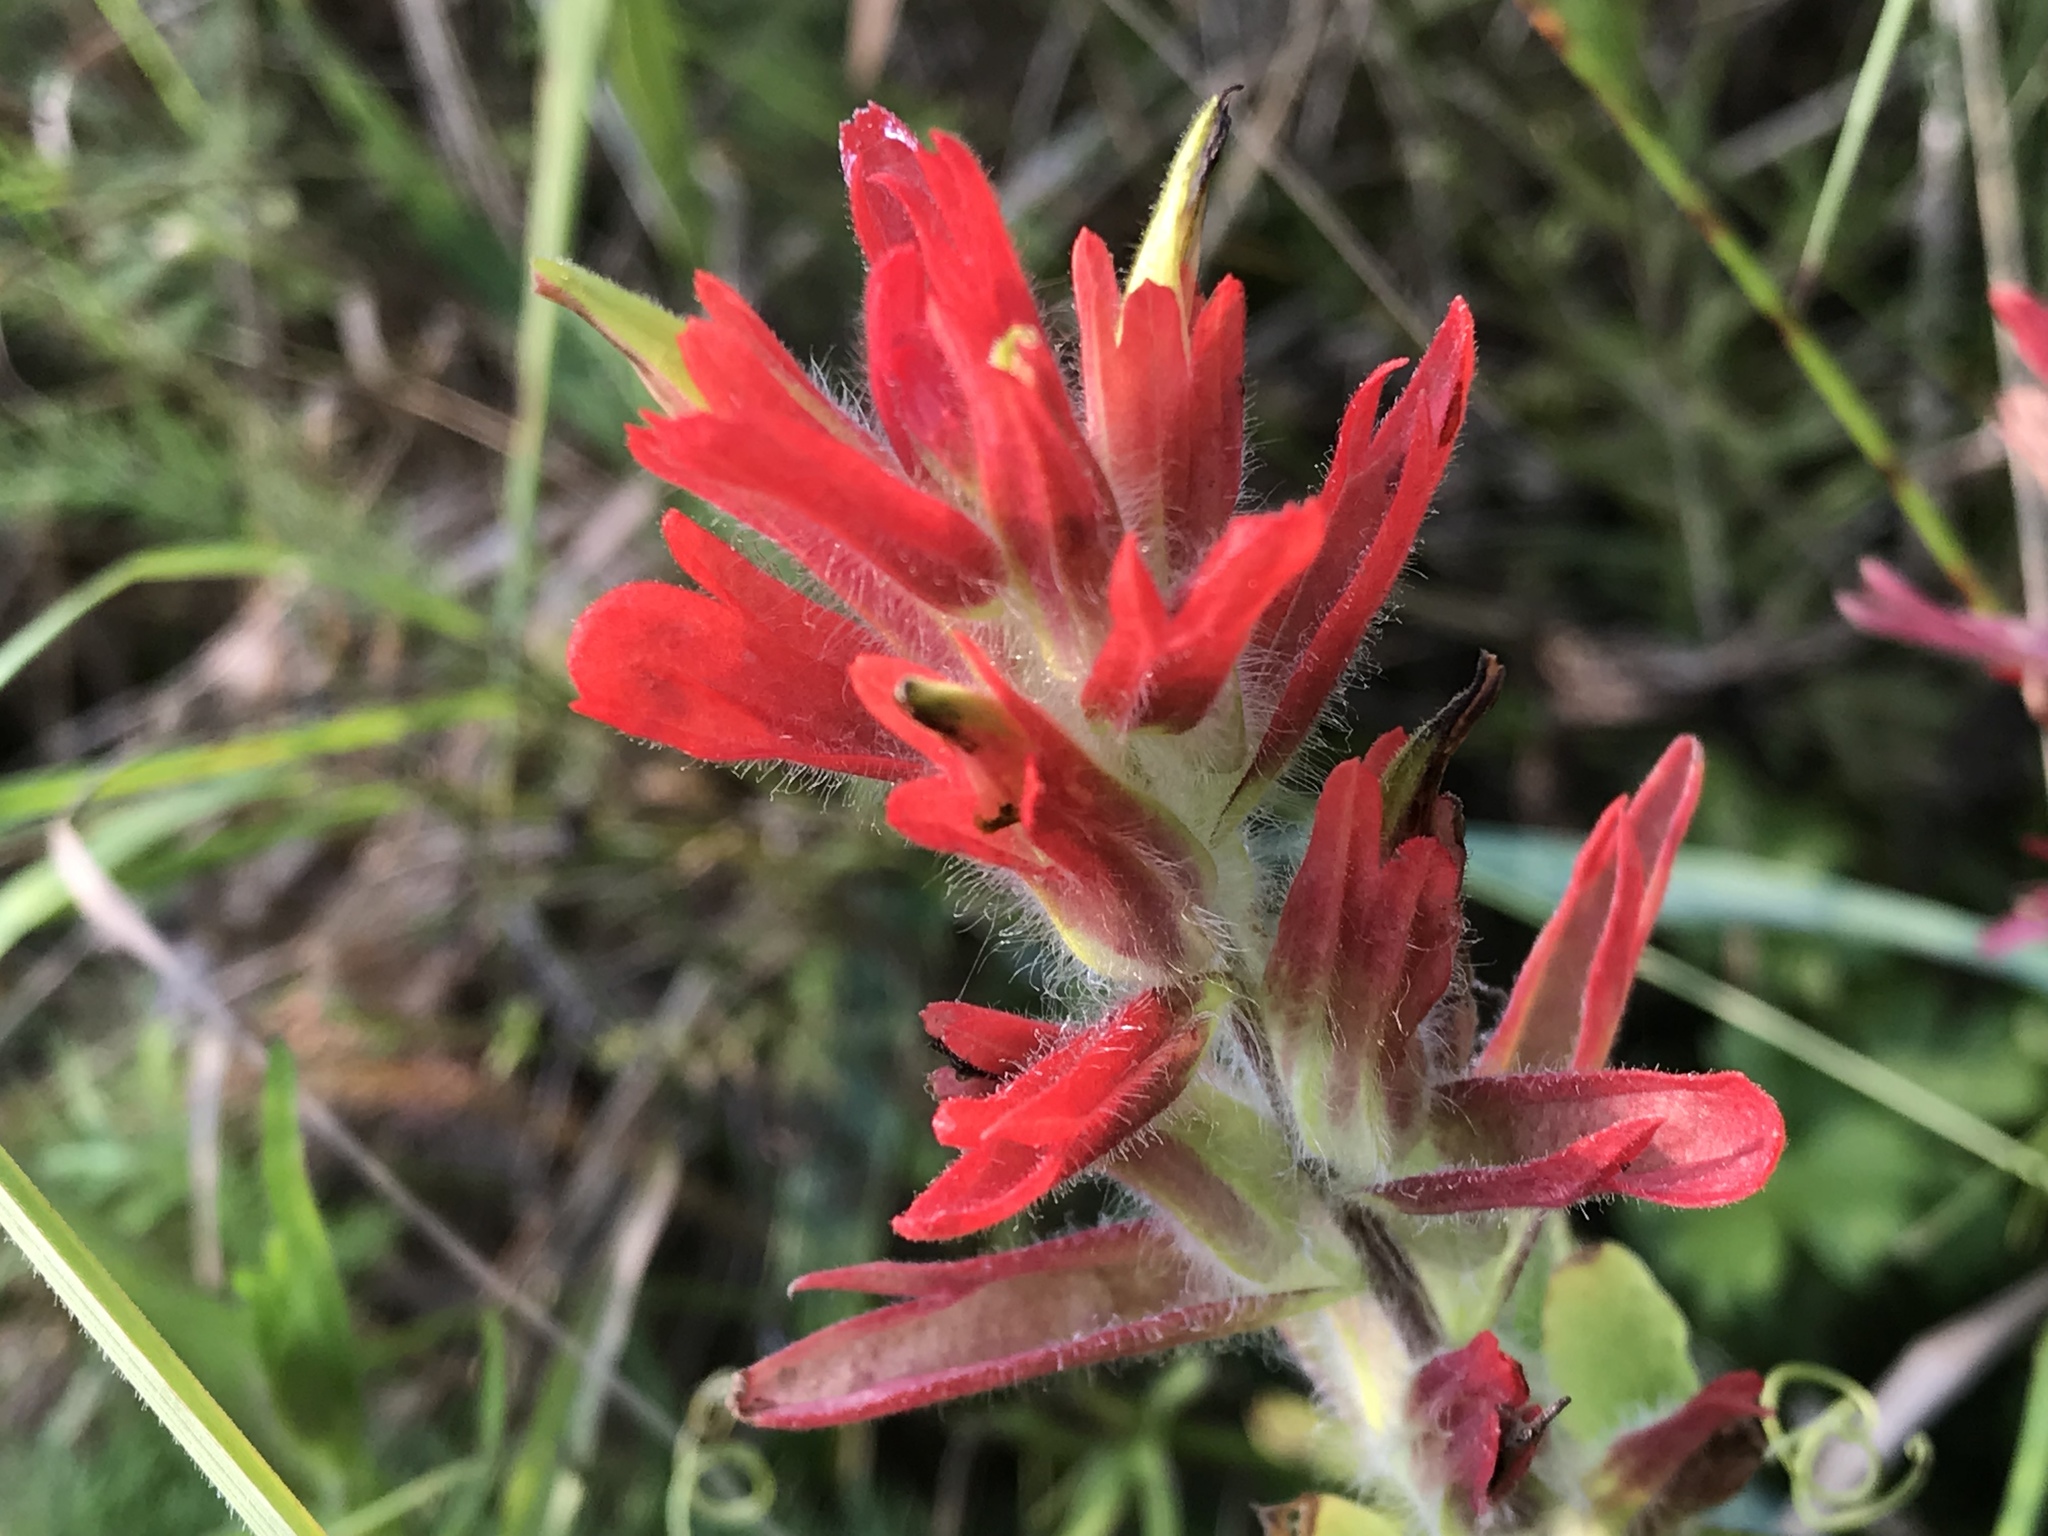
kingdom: Plantae
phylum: Tracheophyta
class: Magnoliopsida
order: Lamiales
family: Orobanchaceae
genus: Castilleja
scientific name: Castilleja miniata
